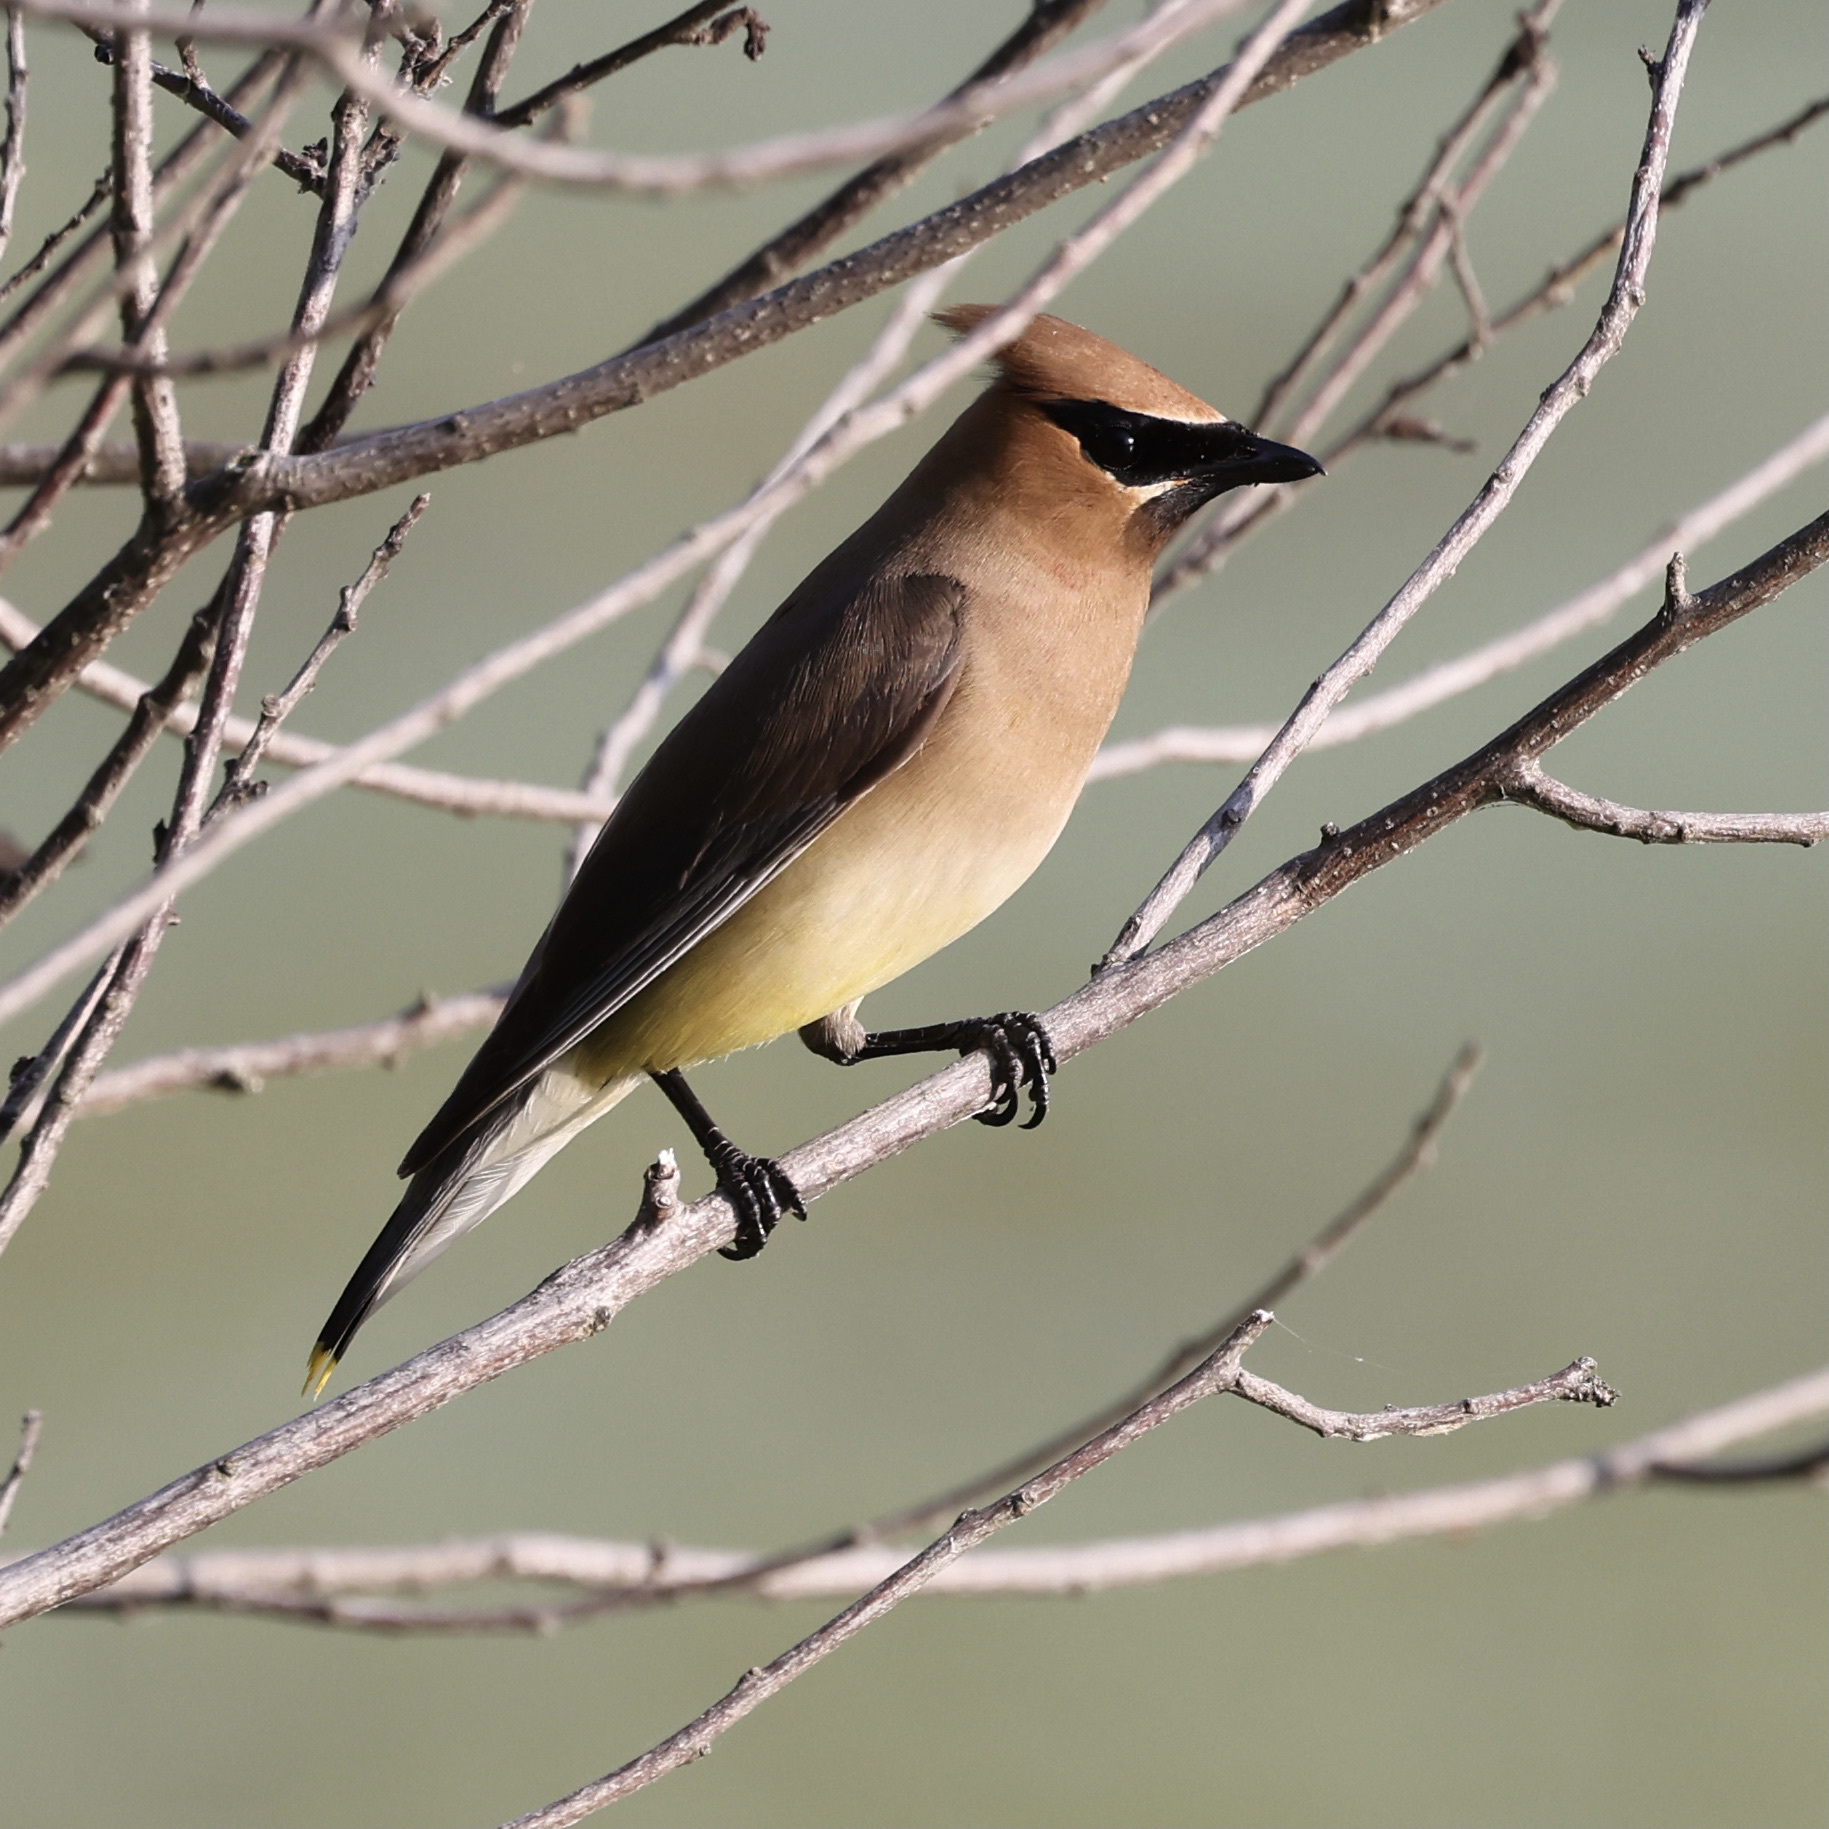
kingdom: Animalia
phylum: Chordata
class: Aves
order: Passeriformes
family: Bombycillidae
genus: Bombycilla
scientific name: Bombycilla cedrorum
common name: Cedar waxwing
